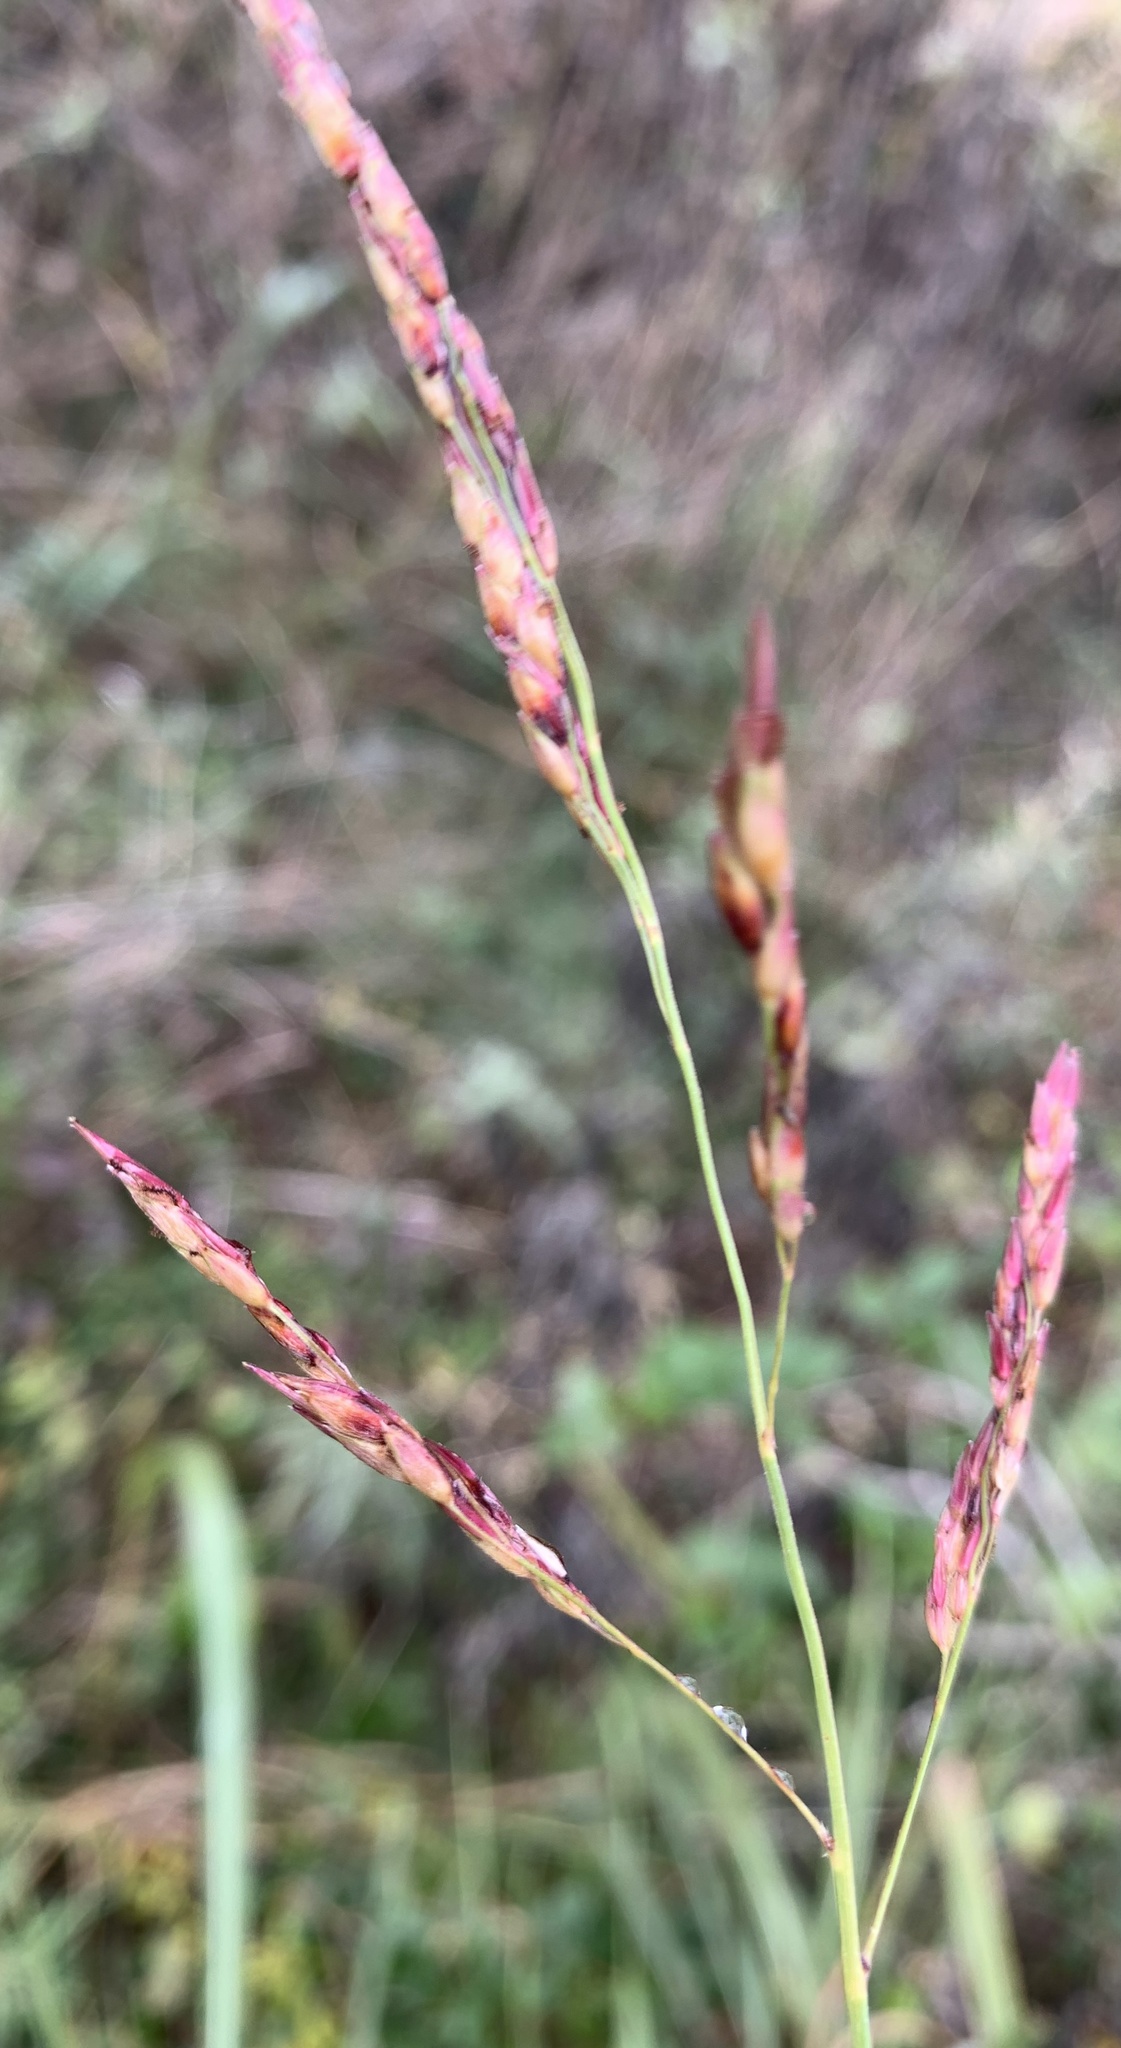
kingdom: Plantae
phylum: Tracheophyta
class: Liliopsida
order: Poales
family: Poaceae
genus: Sorghum
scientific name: Sorghum halepense
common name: Johnson-grass
